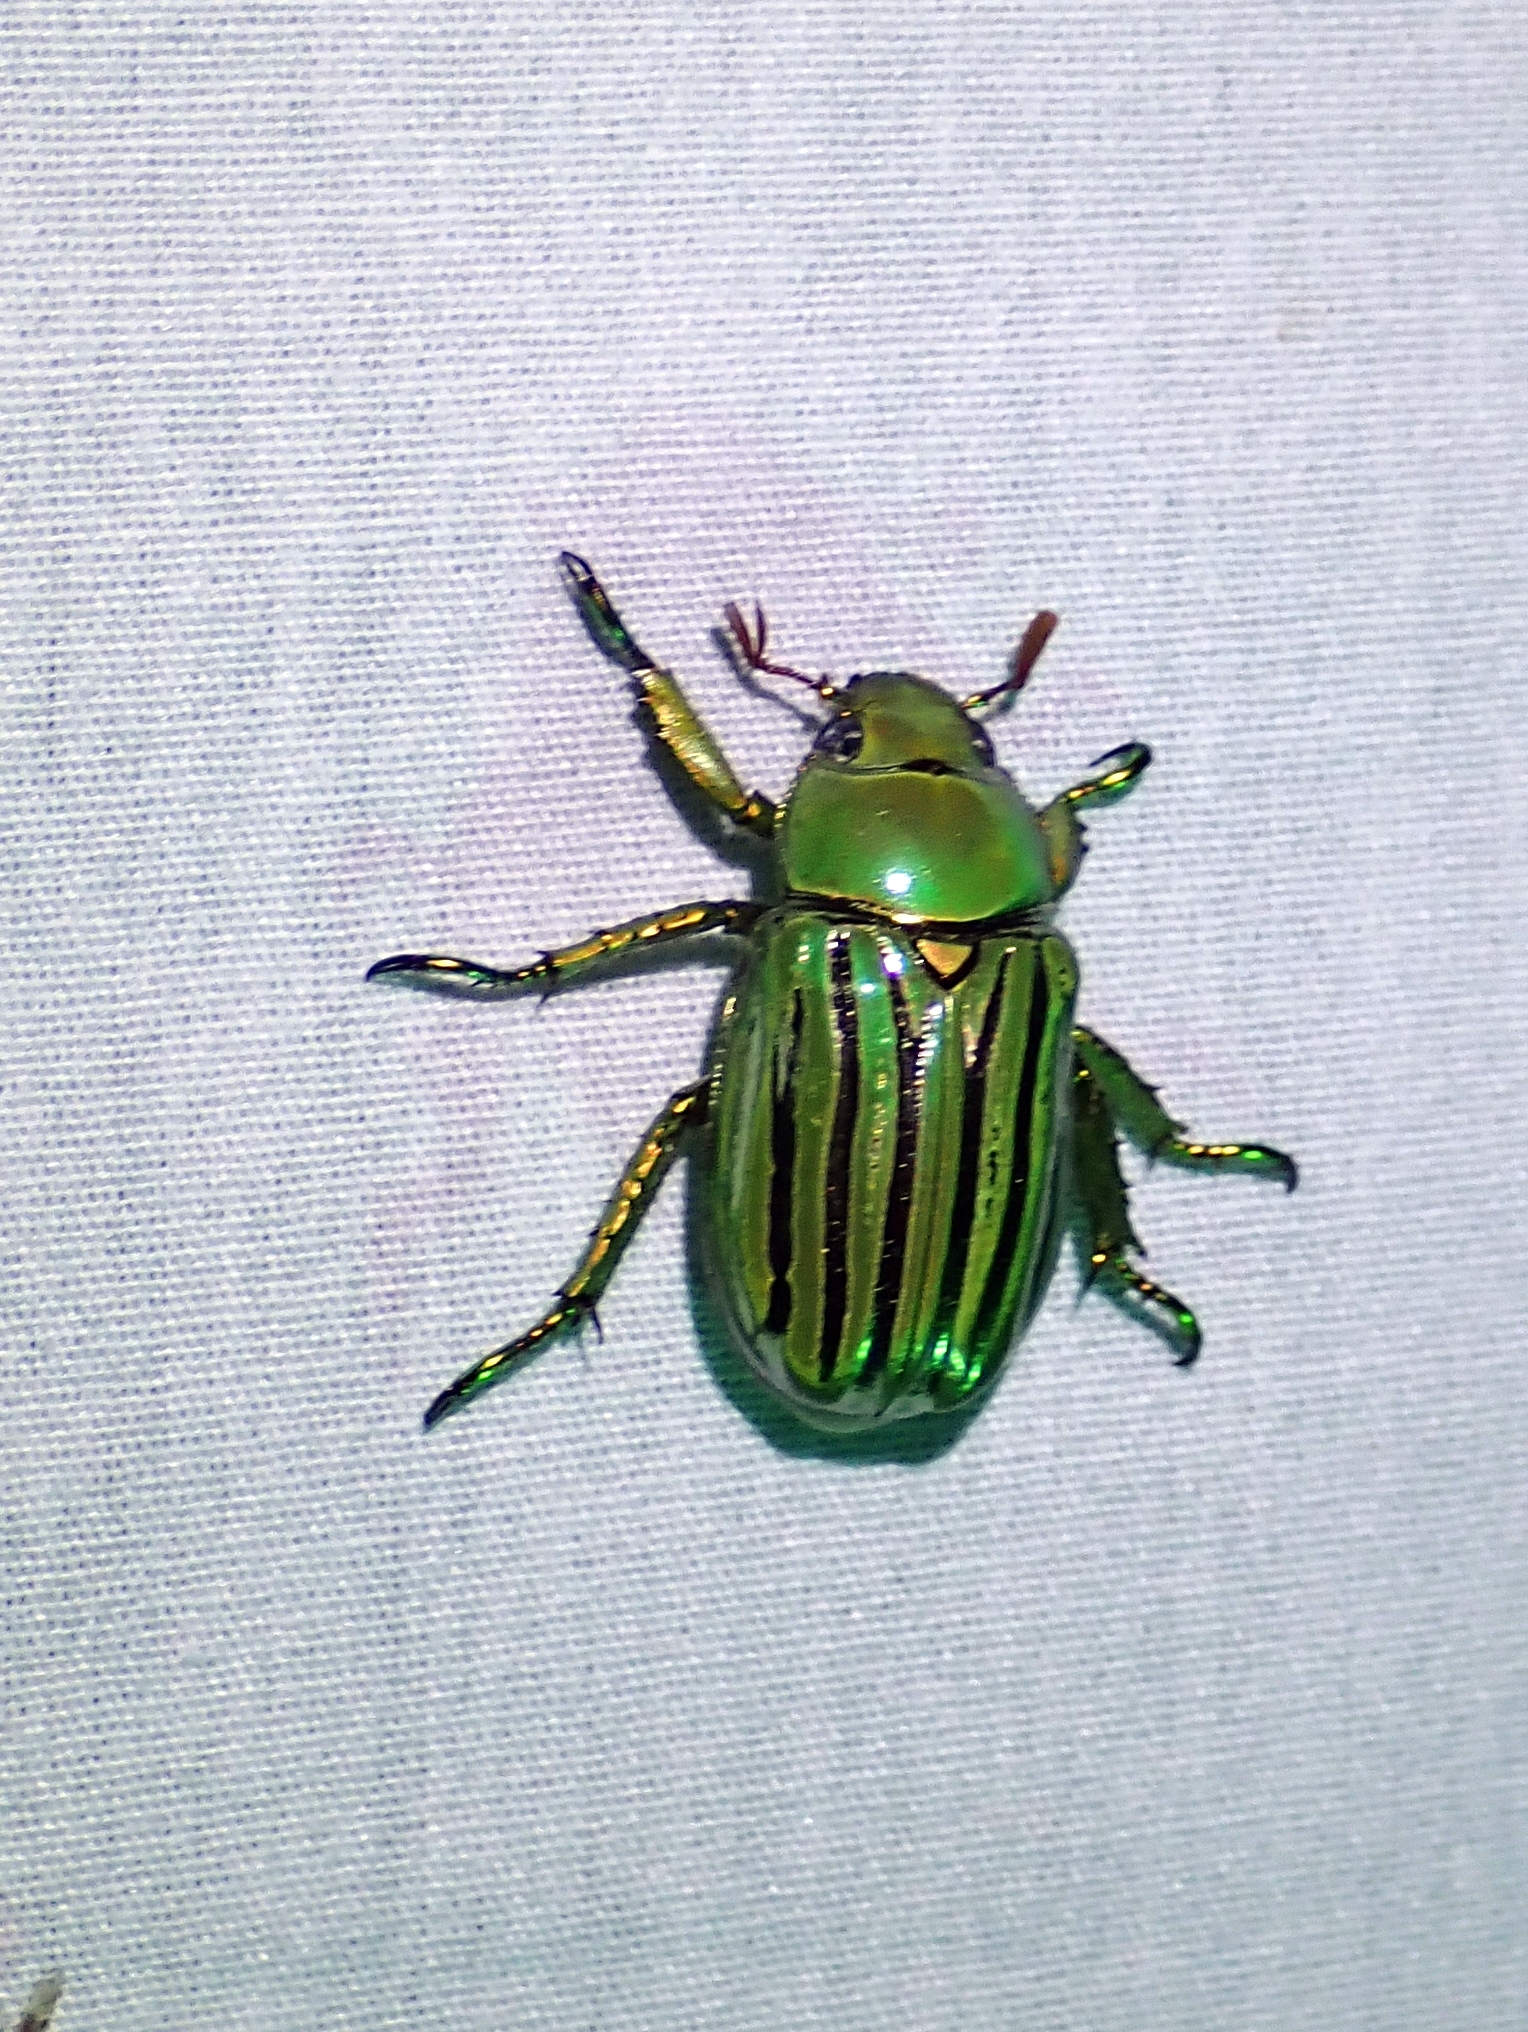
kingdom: Animalia
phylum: Arthropoda
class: Insecta
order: Coleoptera
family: Scarabaeidae
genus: Chrysina
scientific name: Chrysina gloriosa
